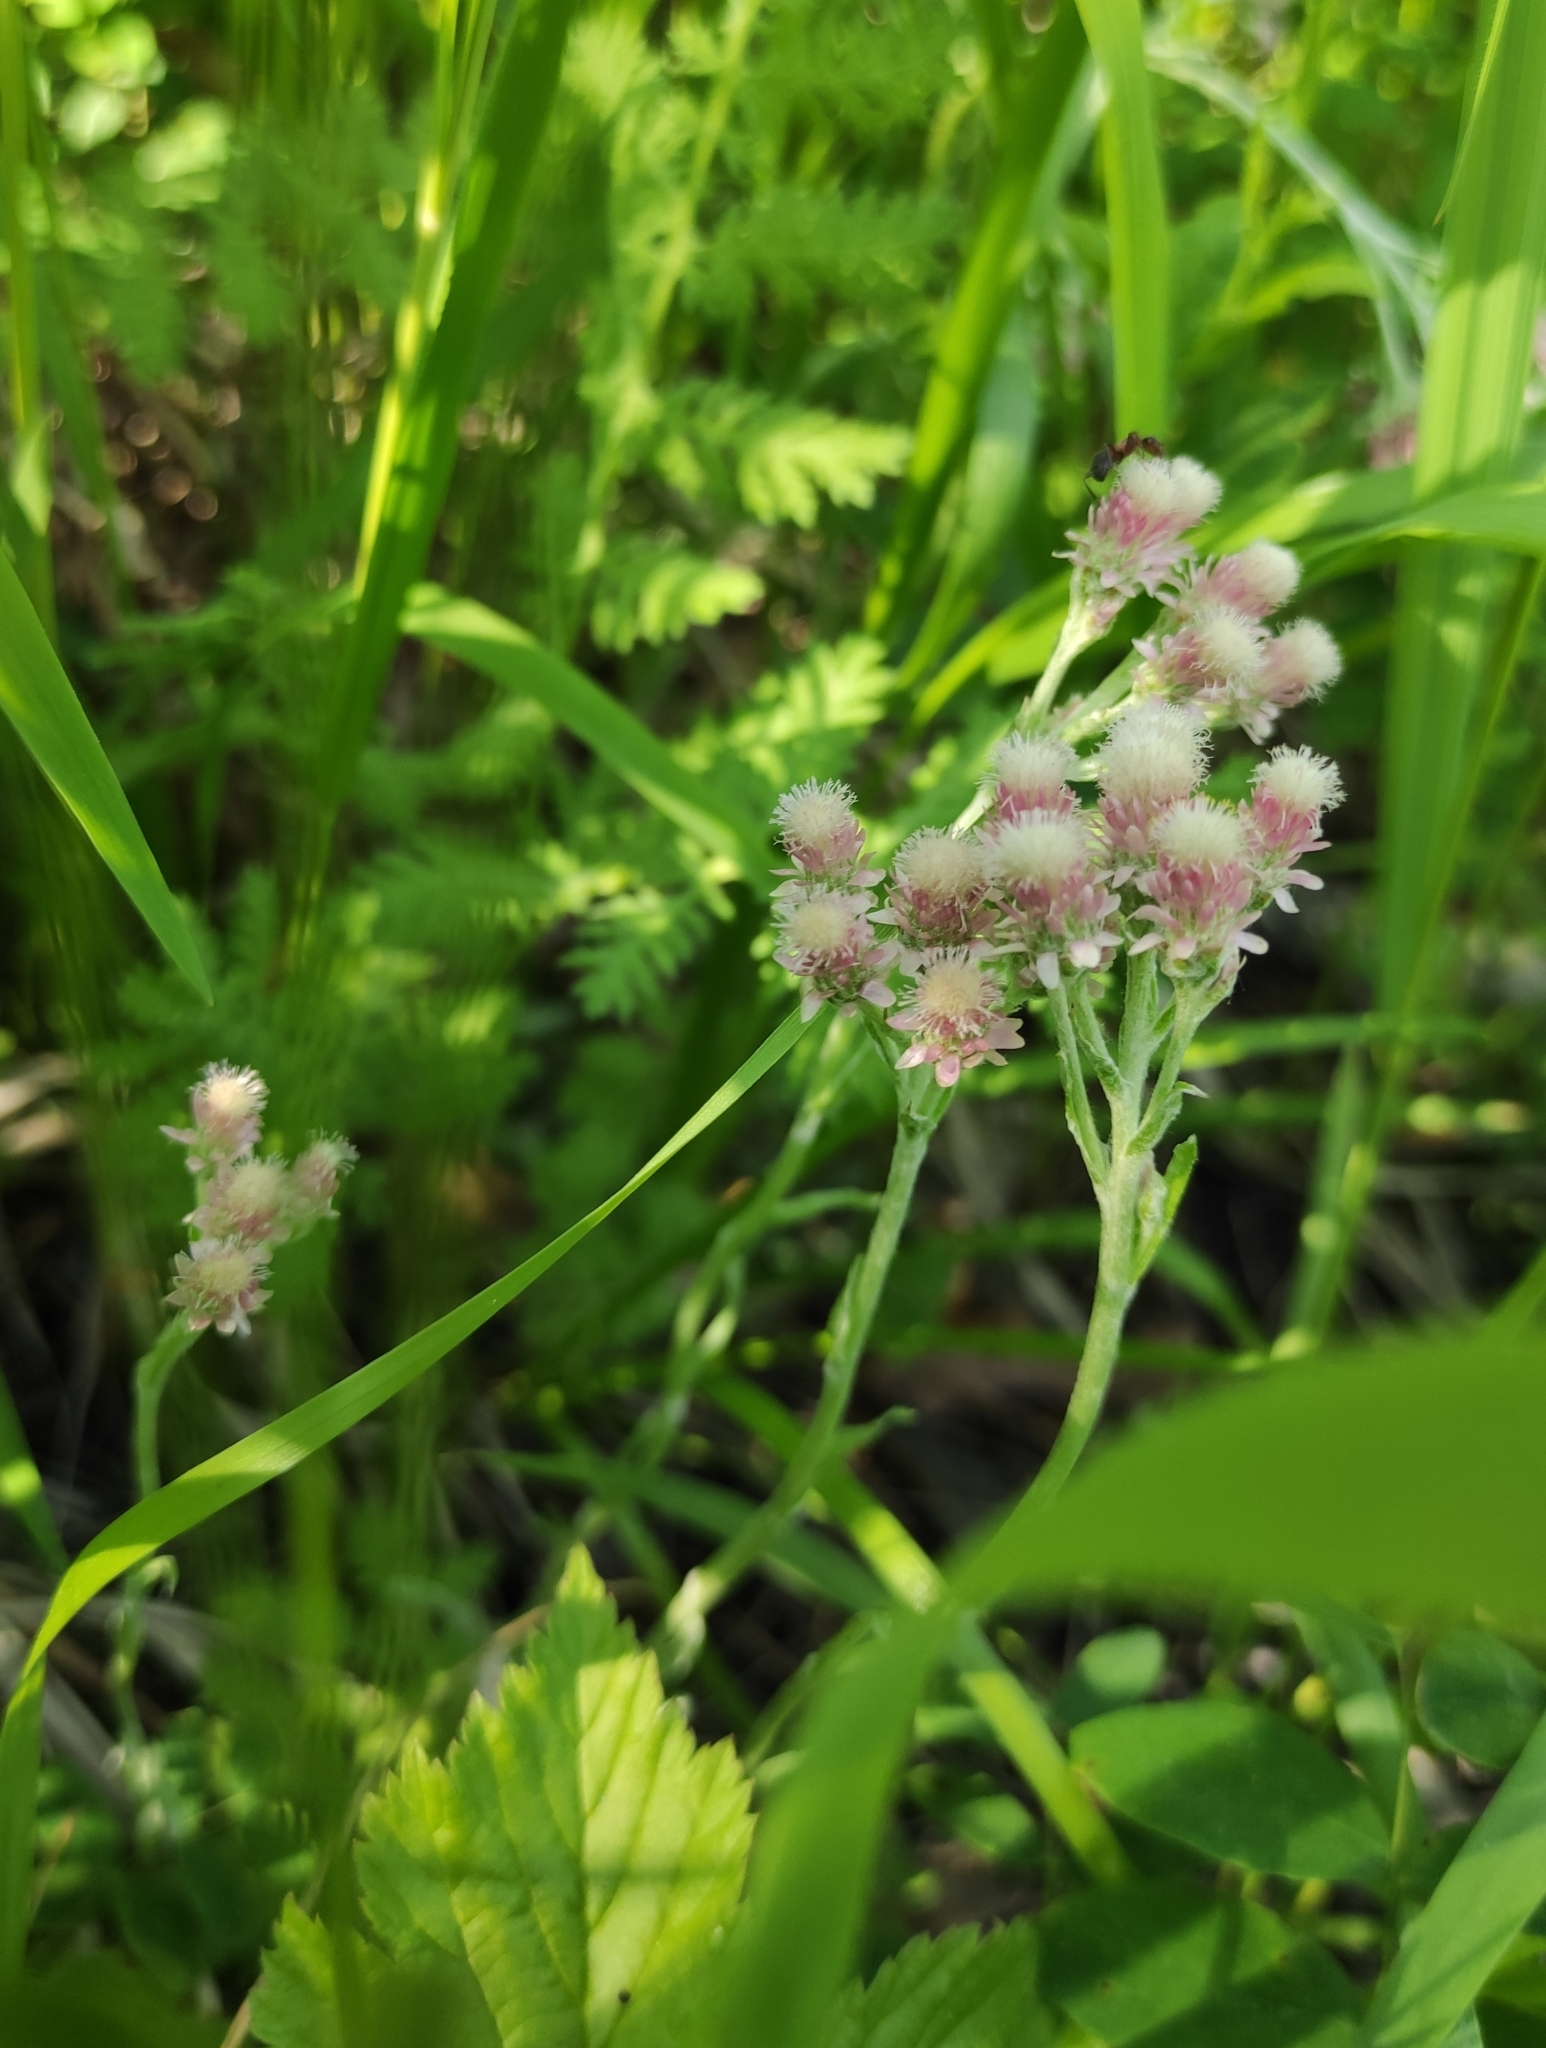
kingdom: Plantae
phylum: Tracheophyta
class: Magnoliopsida
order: Asterales
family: Asteraceae
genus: Antennaria
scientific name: Antennaria dioica
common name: Mountain everlasting
